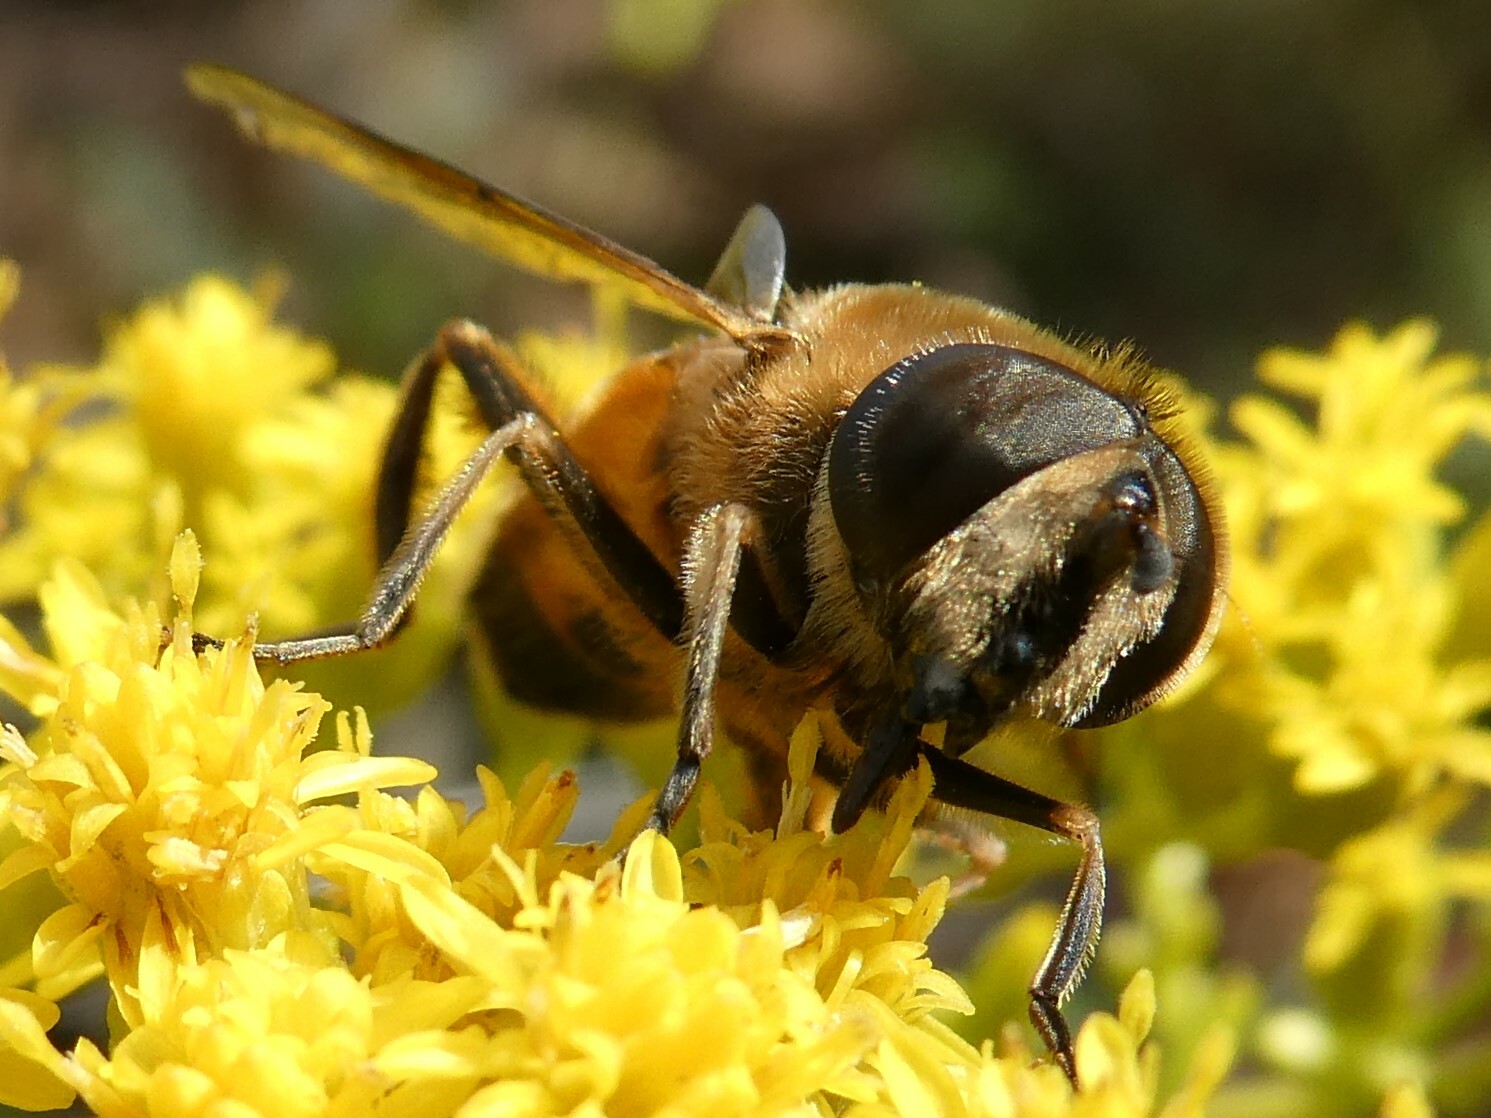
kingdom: Animalia
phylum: Arthropoda
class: Insecta
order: Diptera
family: Syrphidae
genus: Eristalis
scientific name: Eristalis tenax
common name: Drone fly
